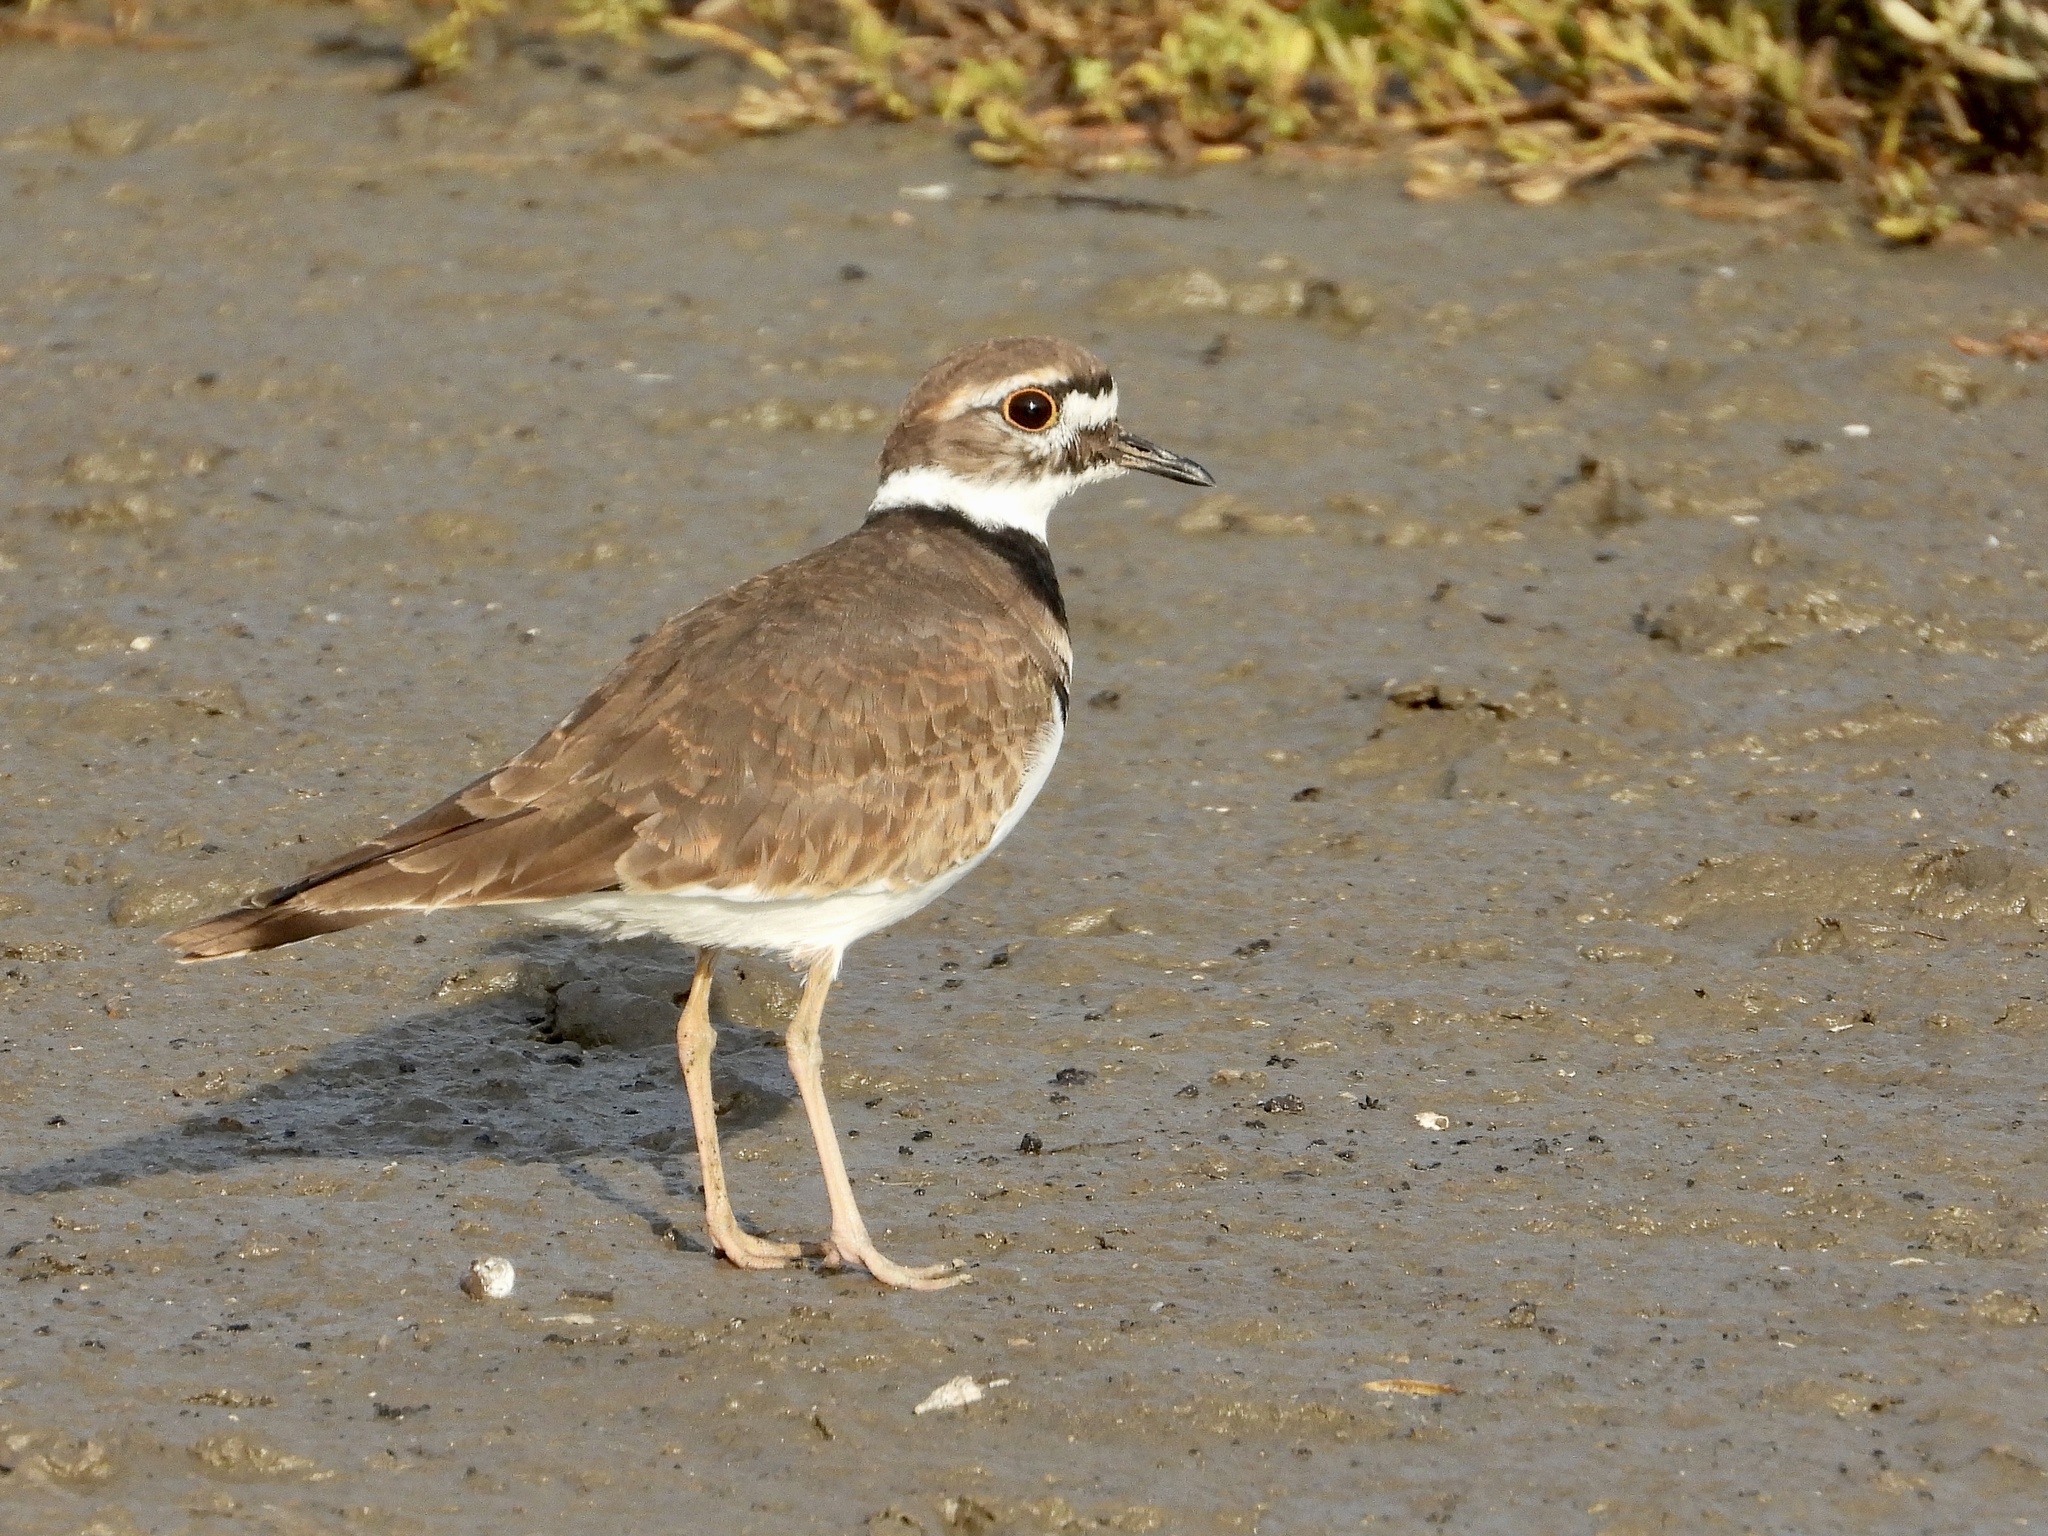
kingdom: Animalia
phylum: Chordata
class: Aves
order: Charadriiformes
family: Charadriidae
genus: Charadrius
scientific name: Charadrius vociferus
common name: Killdeer
